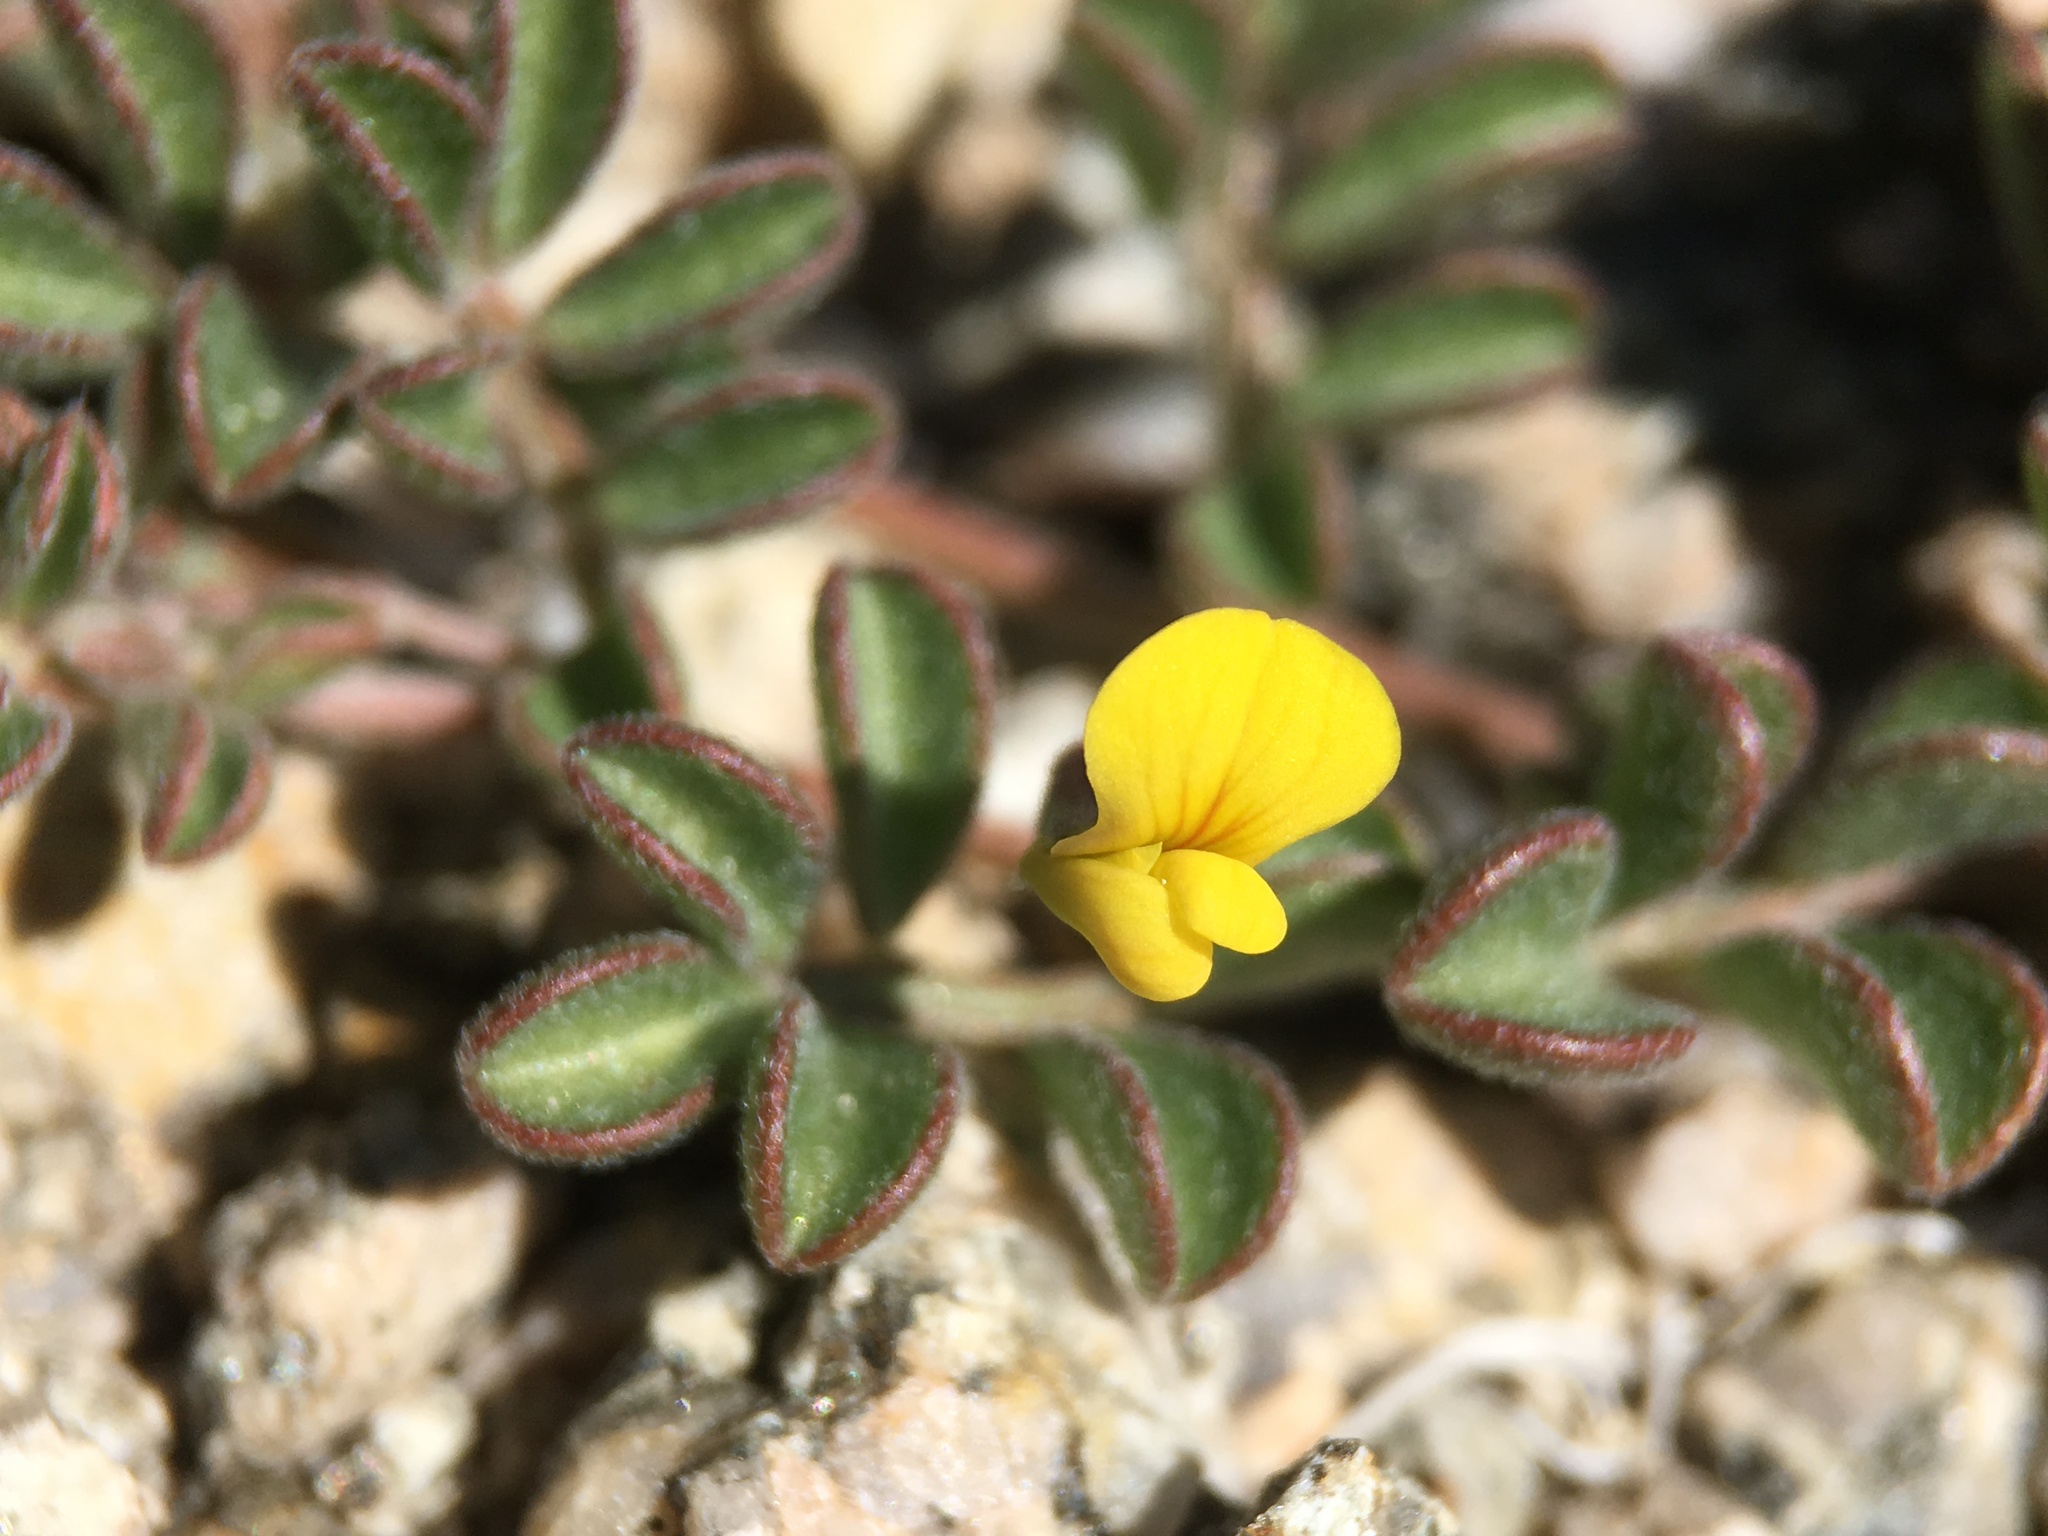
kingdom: Plantae
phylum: Tracheophyta
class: Magnoliopsida
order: Fabales
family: Fabaceae
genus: Acmispon
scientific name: Acmispon strigosus
